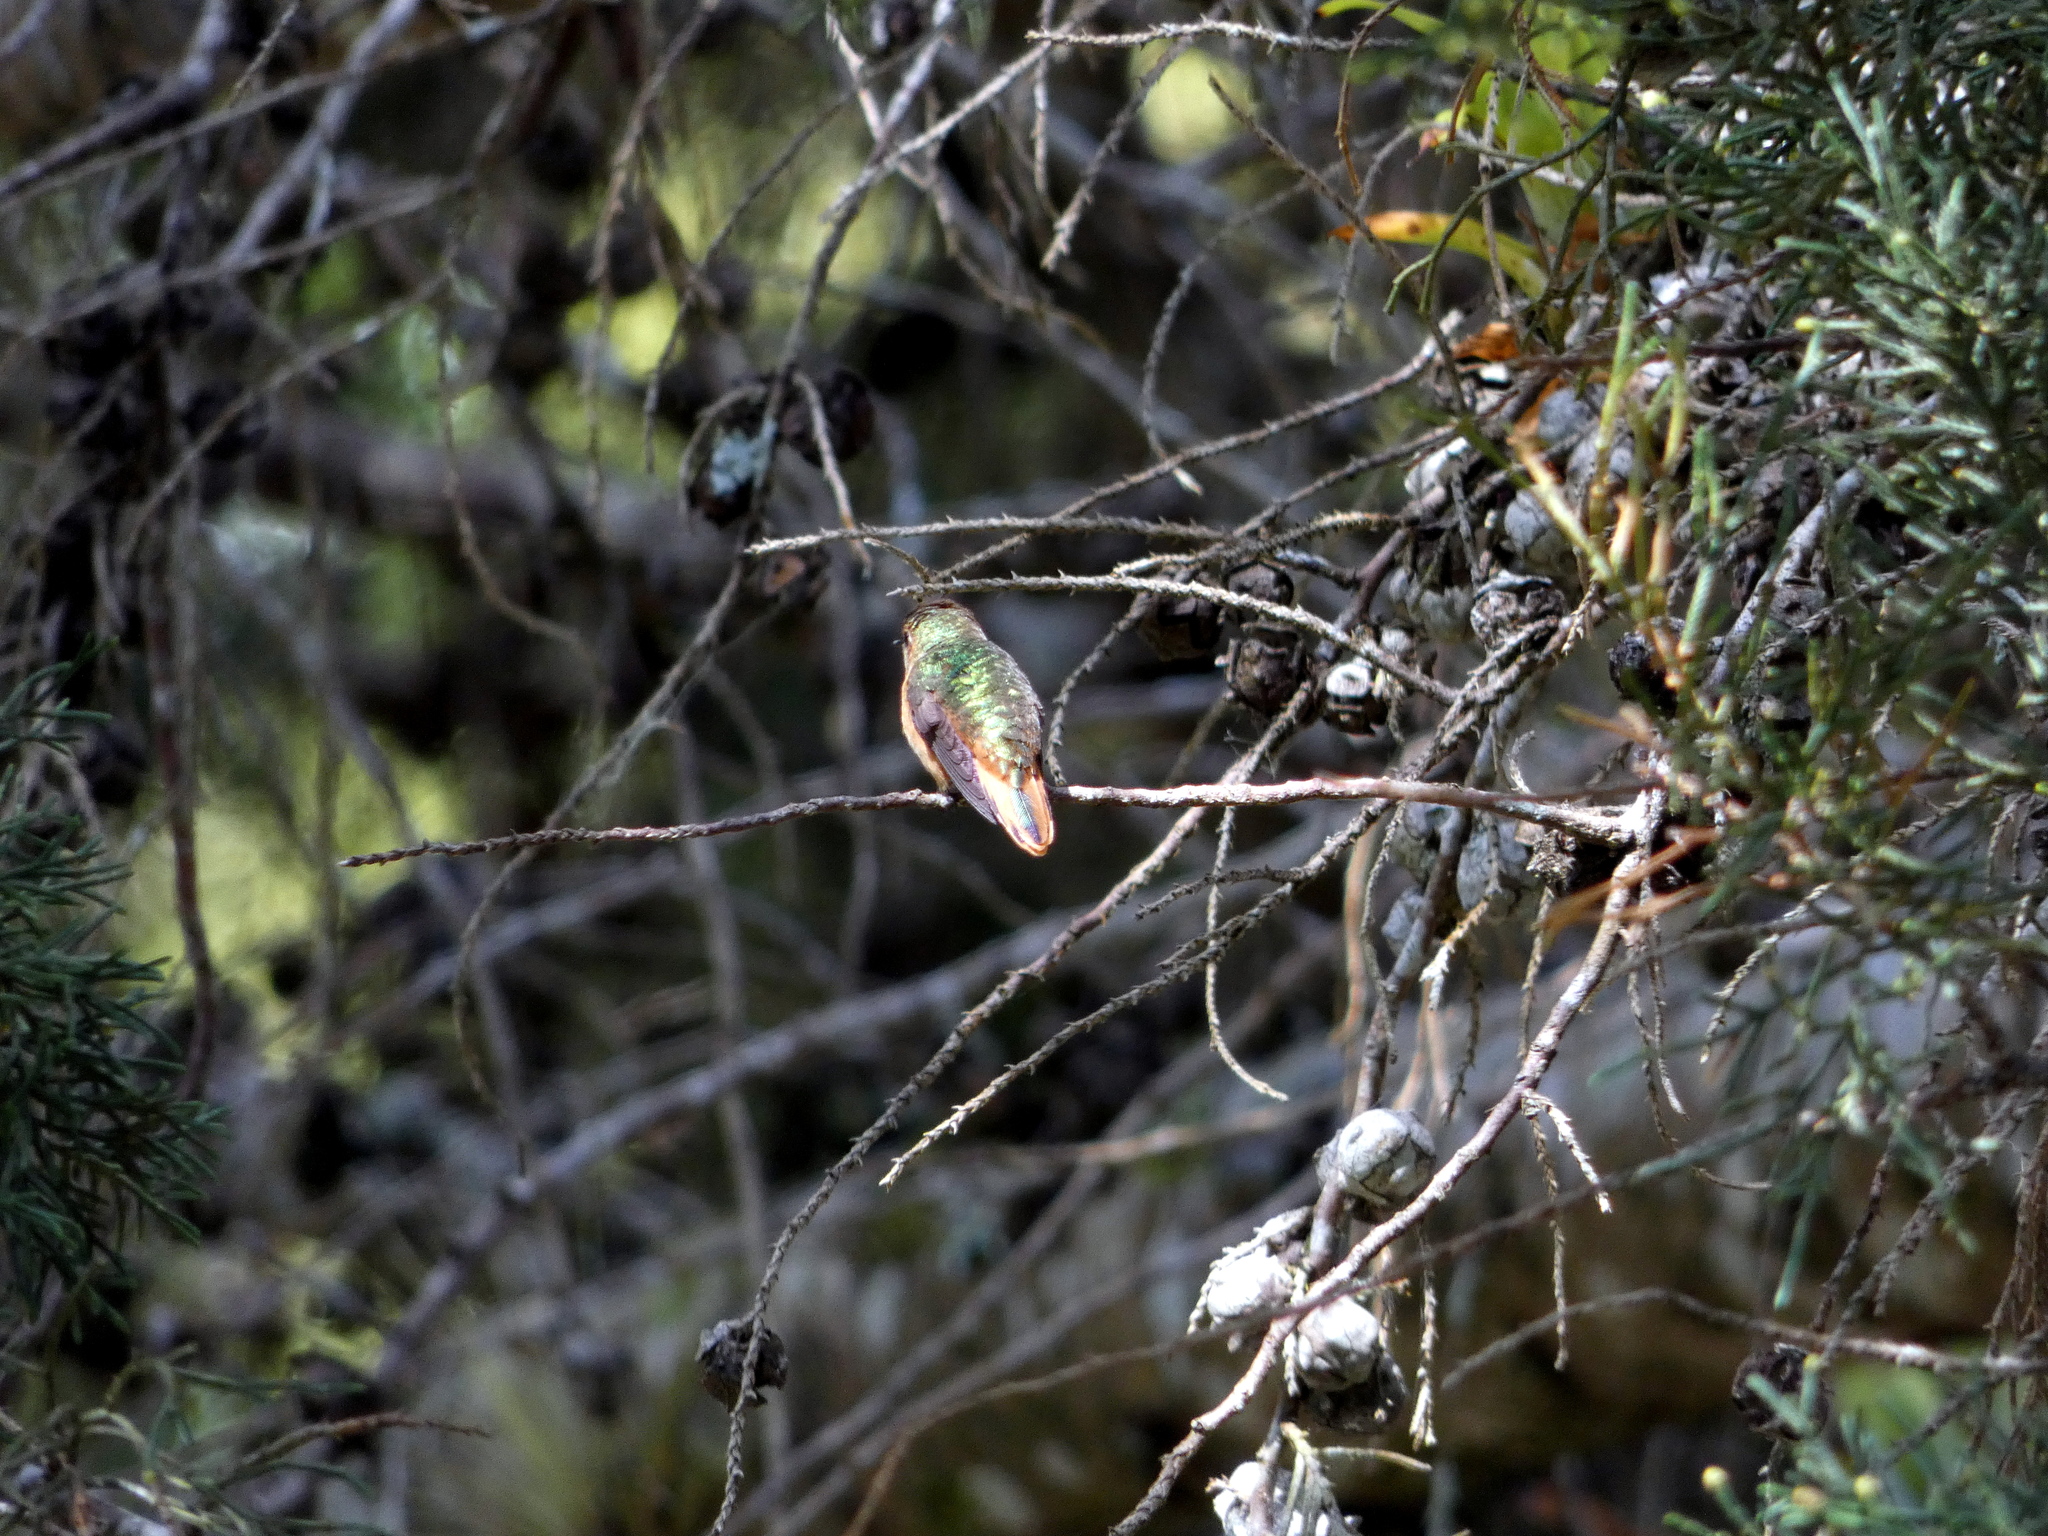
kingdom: Animalia
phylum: Chordata
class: Aves
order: Apodiformes
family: Trochilidae
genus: Selasphorus
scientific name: Selasphorus scintilla
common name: Scintillant hummingbird
